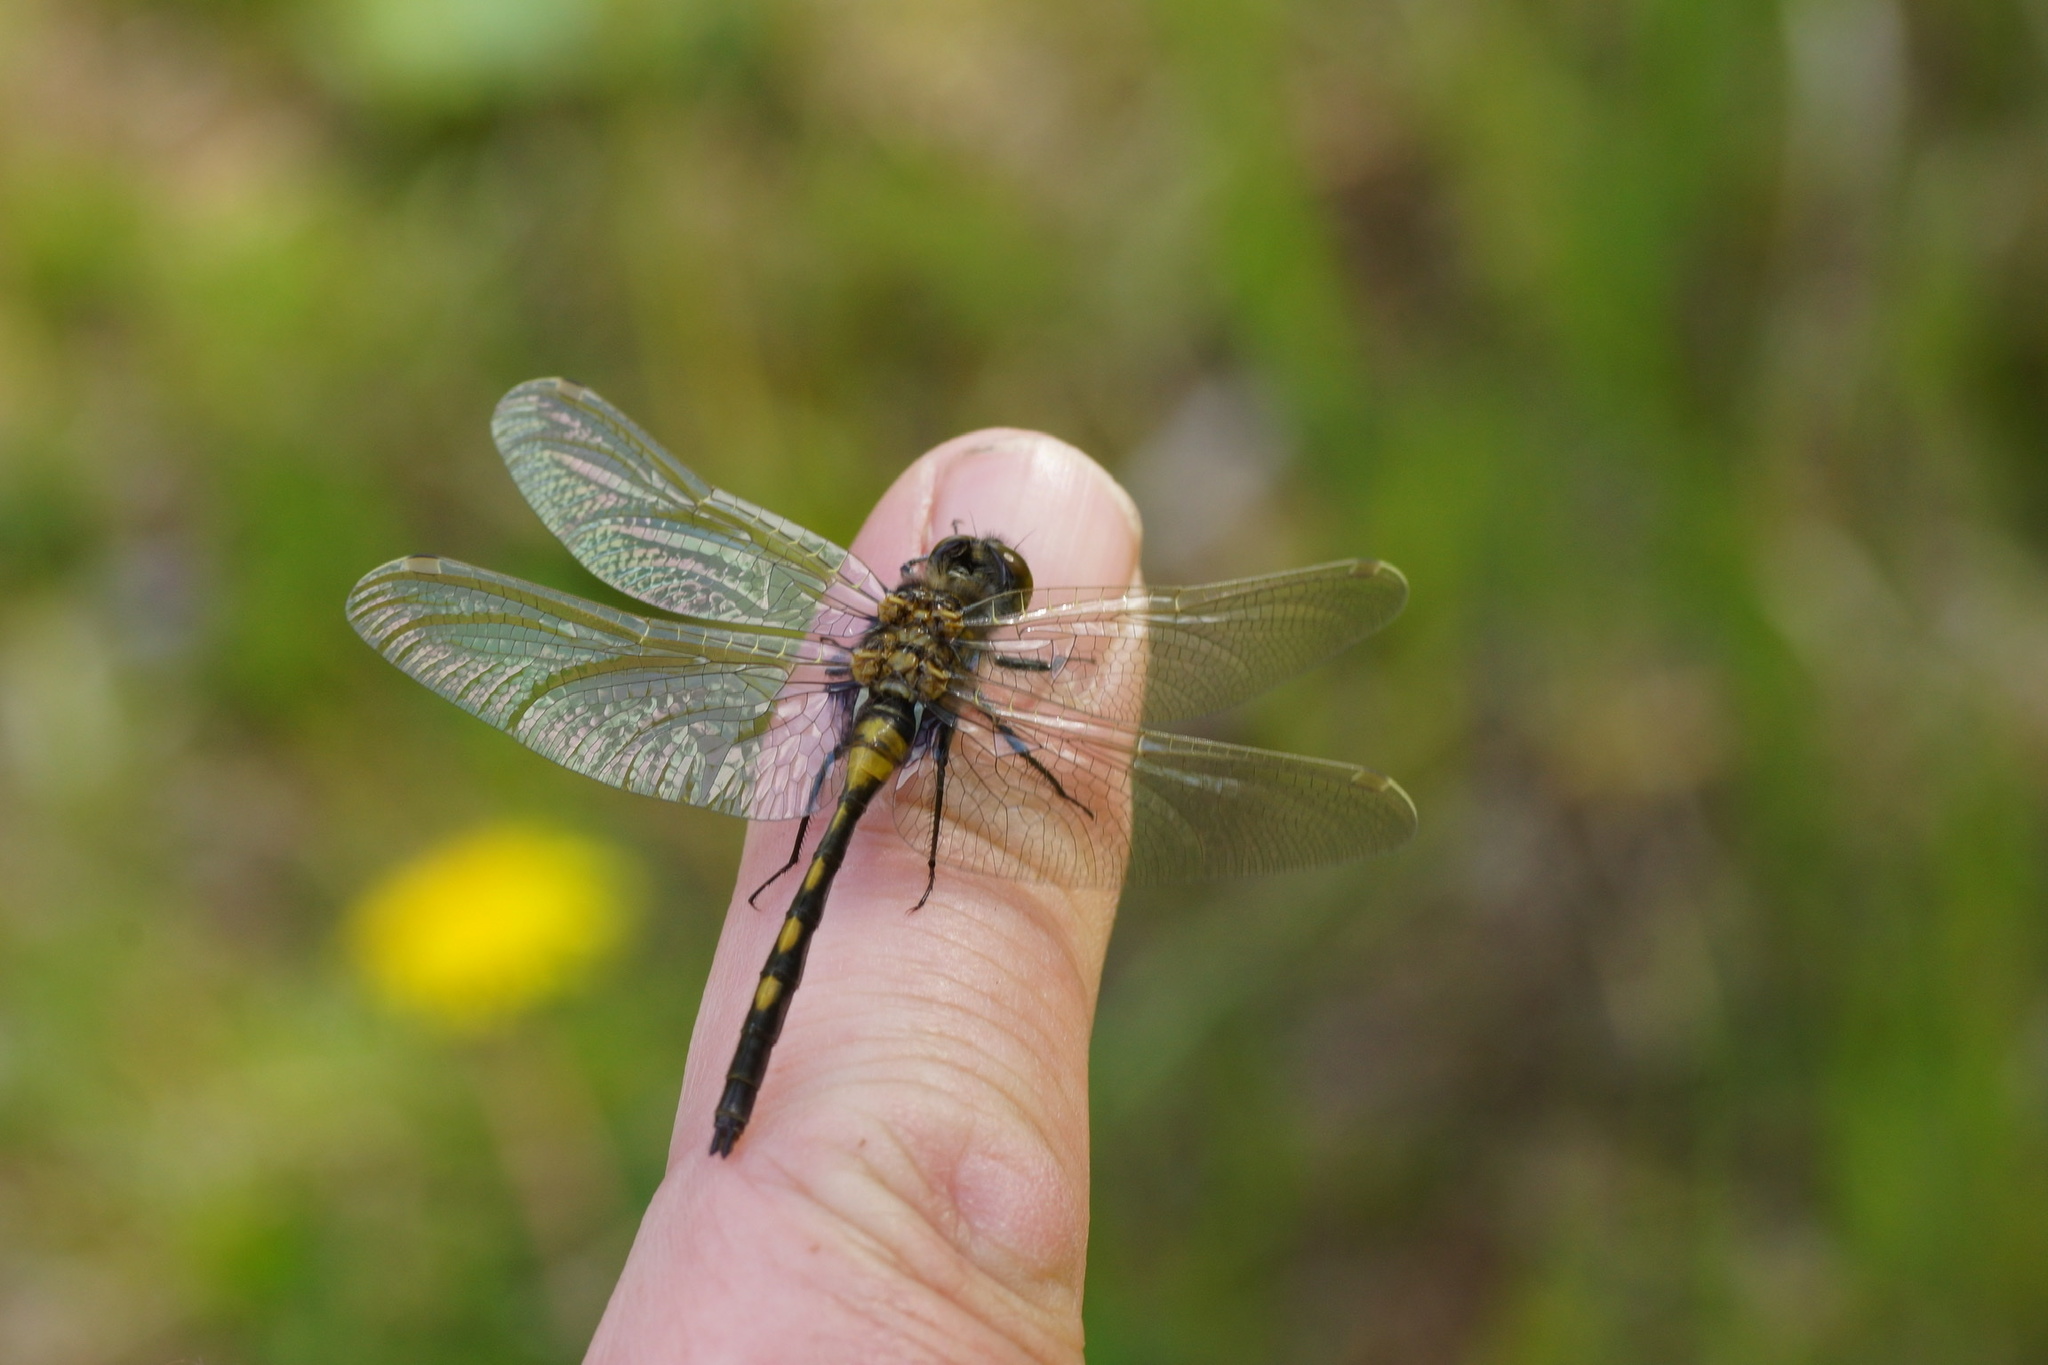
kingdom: Animalia
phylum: Arthropoda
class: Insecta
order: Odonata
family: Libellulidae
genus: Leucorrhinia
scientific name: Leucorrhinia dubia
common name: White-faced darter
